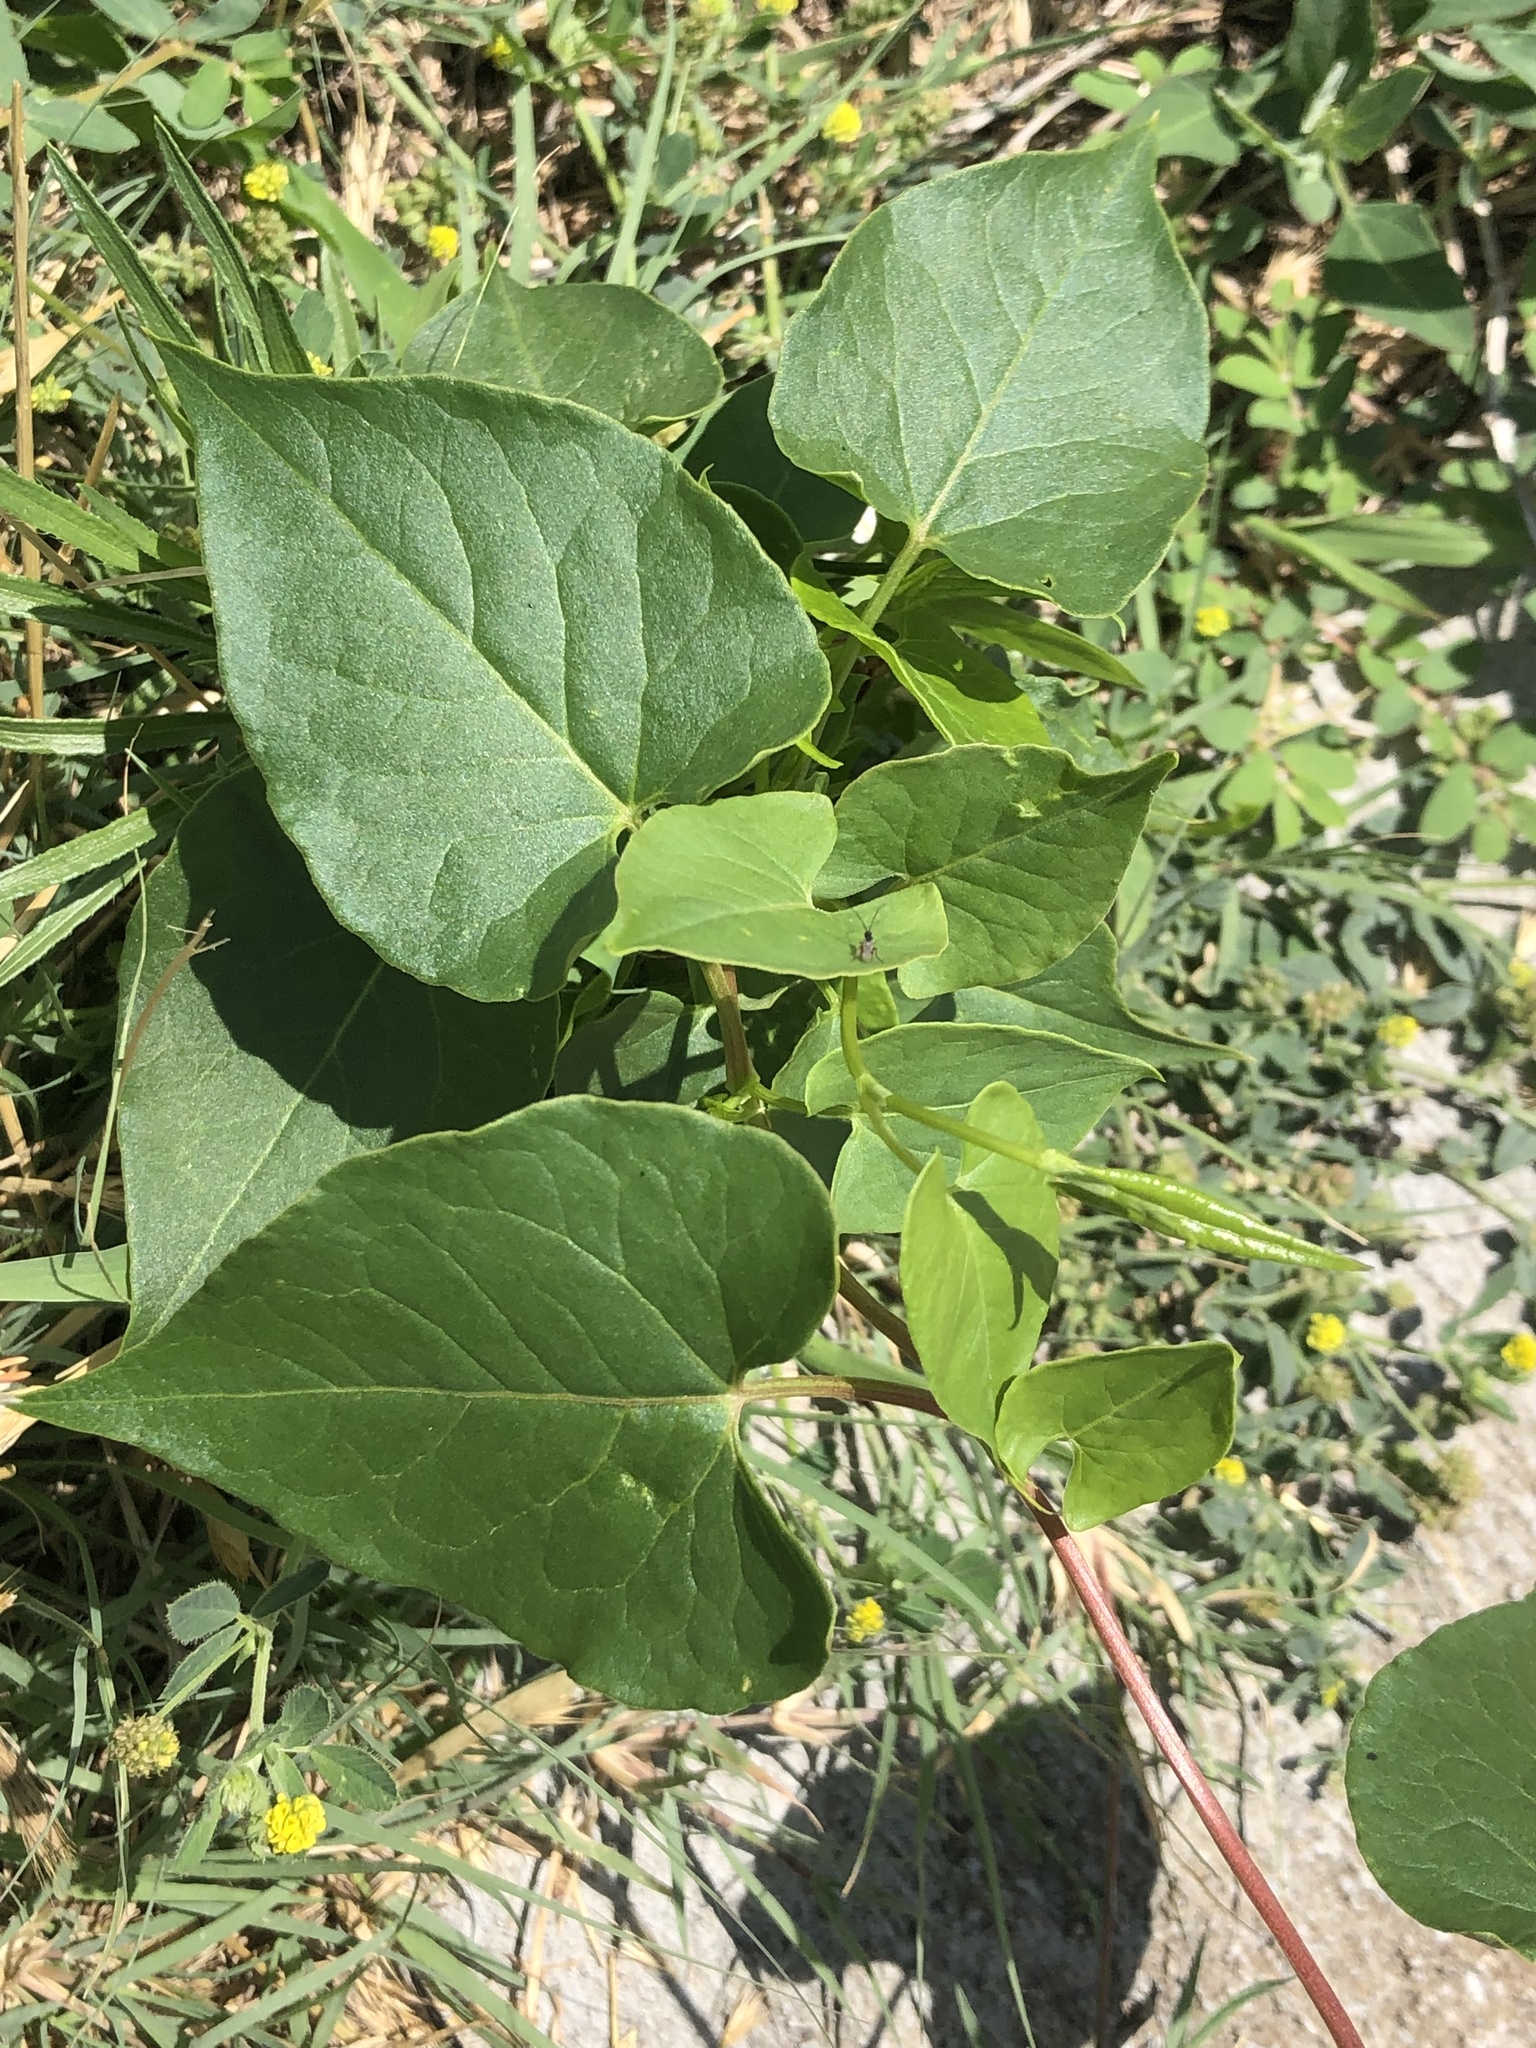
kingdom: Plantae
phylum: Tracheophyta
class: Magnoliopsida
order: Caryophyllales
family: Polygonaceae
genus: Fallopia
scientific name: Fallopia
